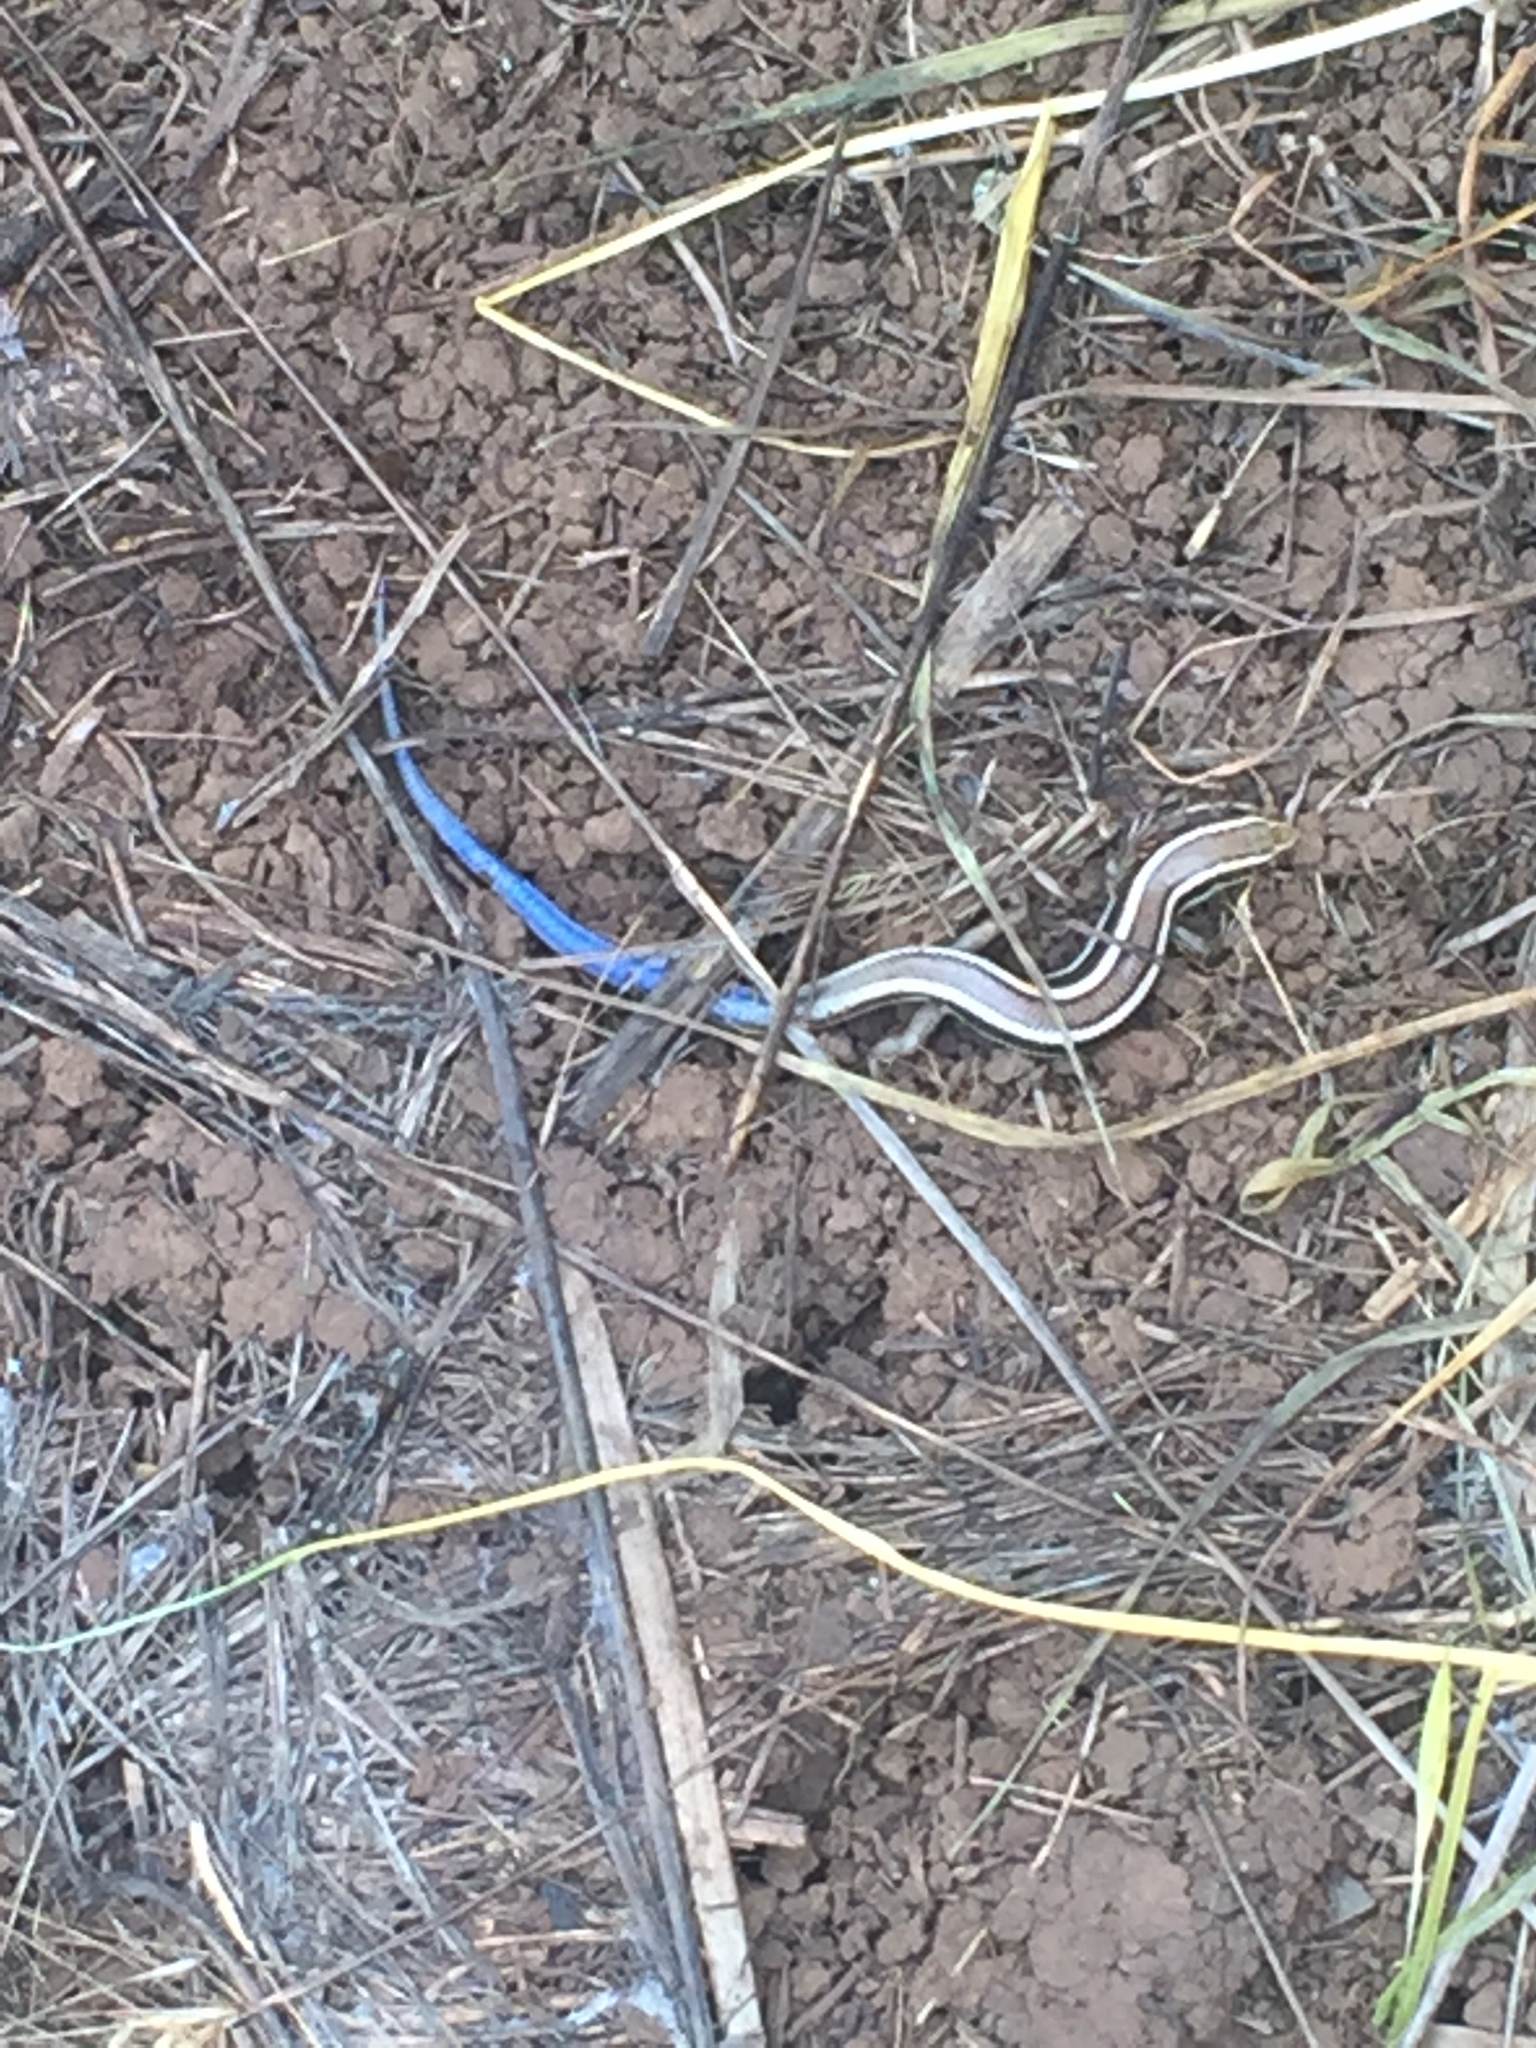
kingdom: Animalia
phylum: Chordata
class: Squamata
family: Scincidae
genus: Plestiodon
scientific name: Plestiodon skiltonianus
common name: Coronado island skink [interparietalis]
